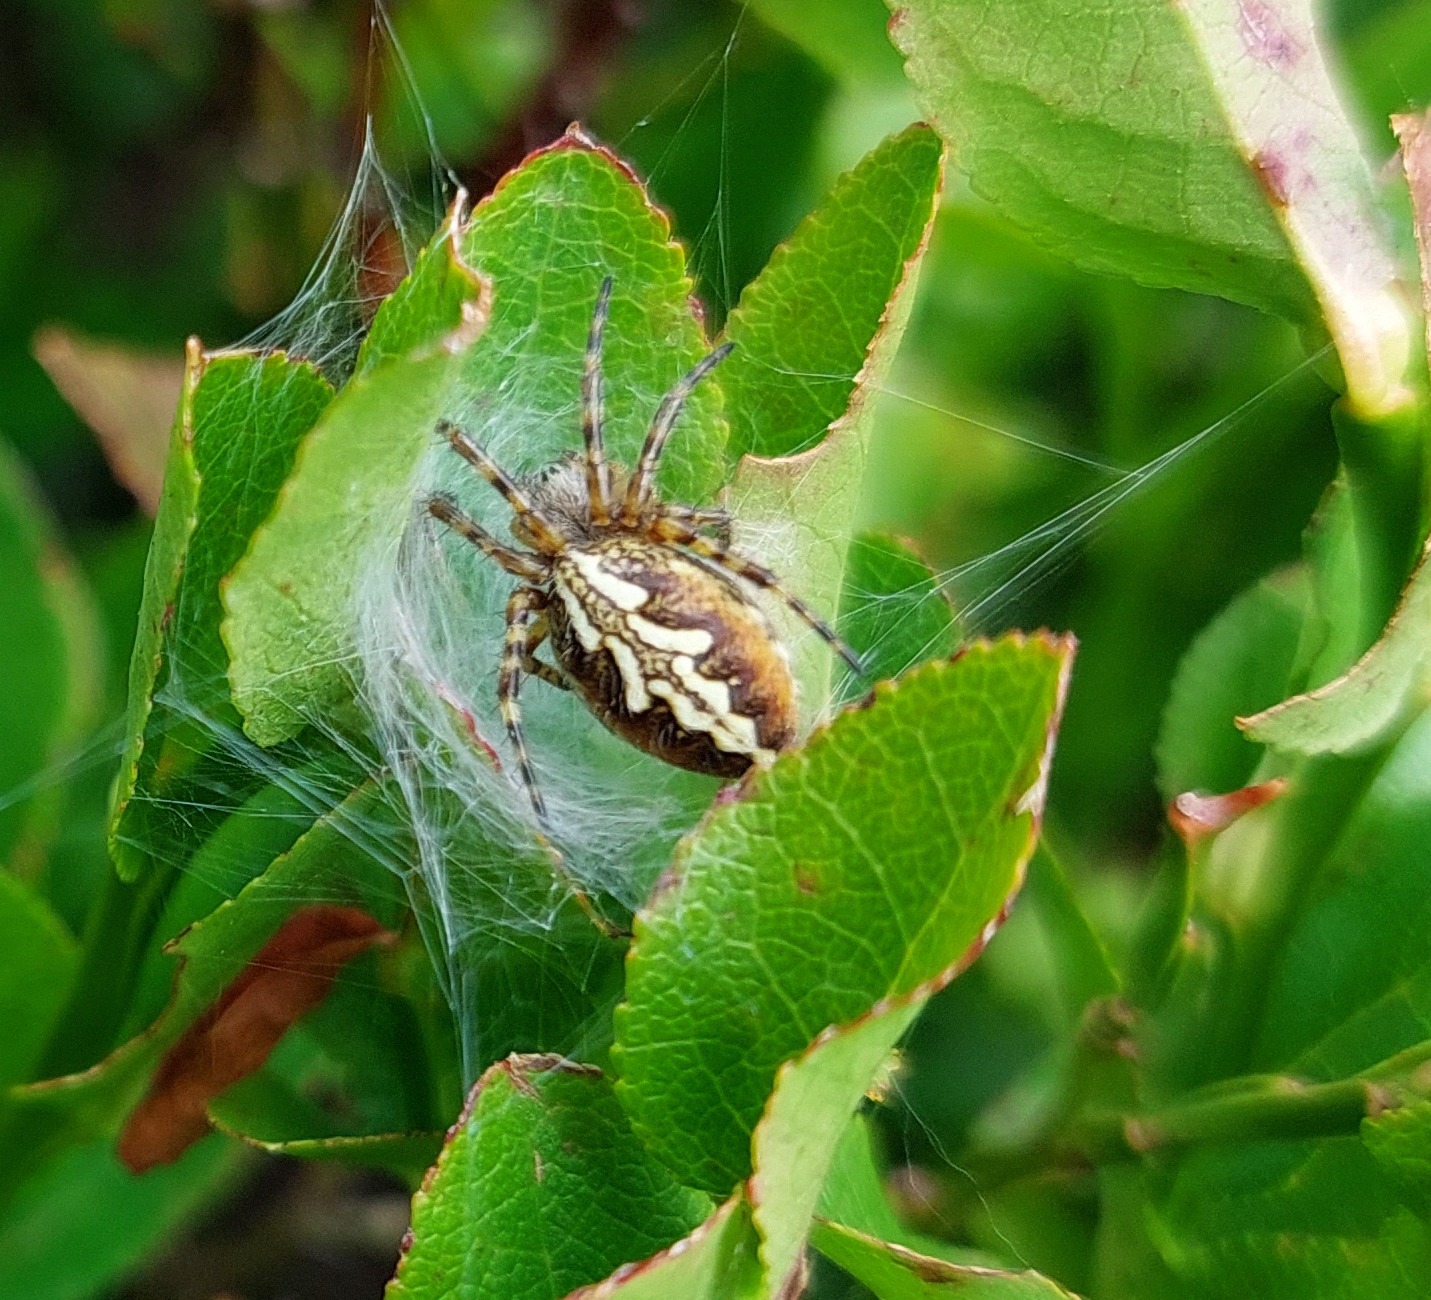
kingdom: Animalia
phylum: Arthropoda
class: Arachnida
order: Araneae
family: Araneidae
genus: Aculepeira
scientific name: Aculepeira ceropegia
